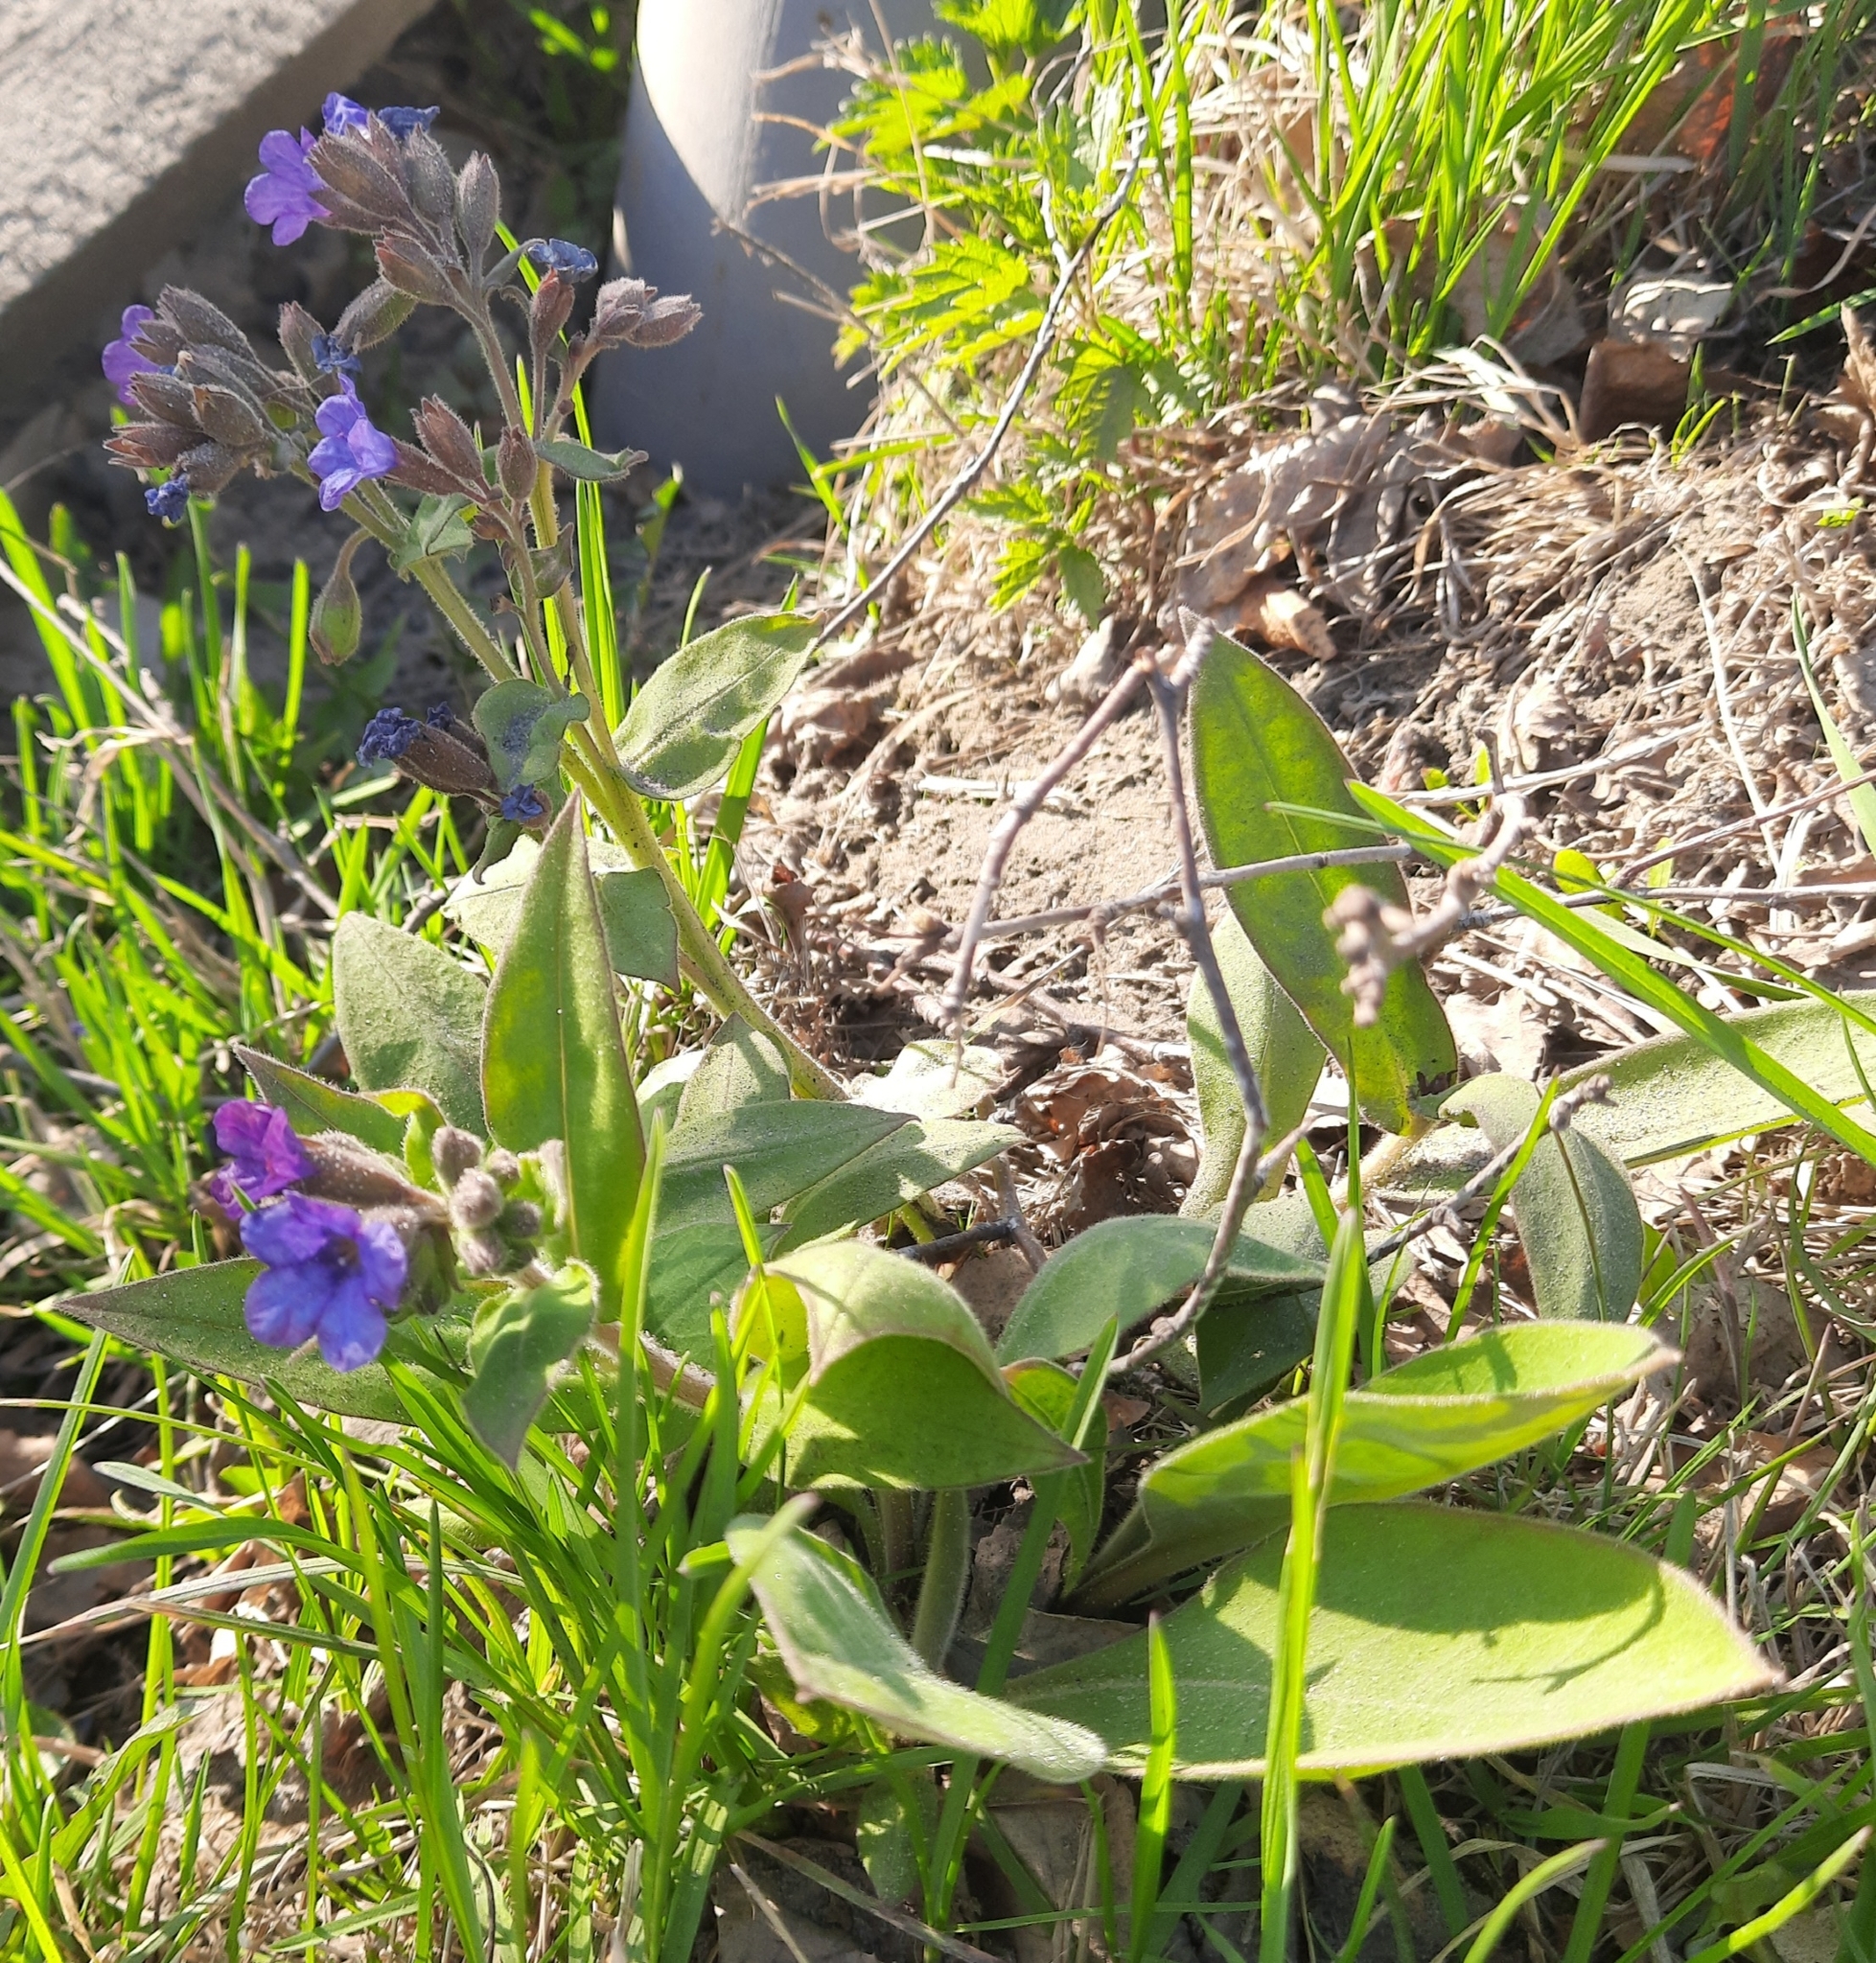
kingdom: Plantae
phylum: Tracheophyta
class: Magnoliopsida
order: Boraginales
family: Boraginaceae
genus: Pulmonaria
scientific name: Pulmonaria mollis
